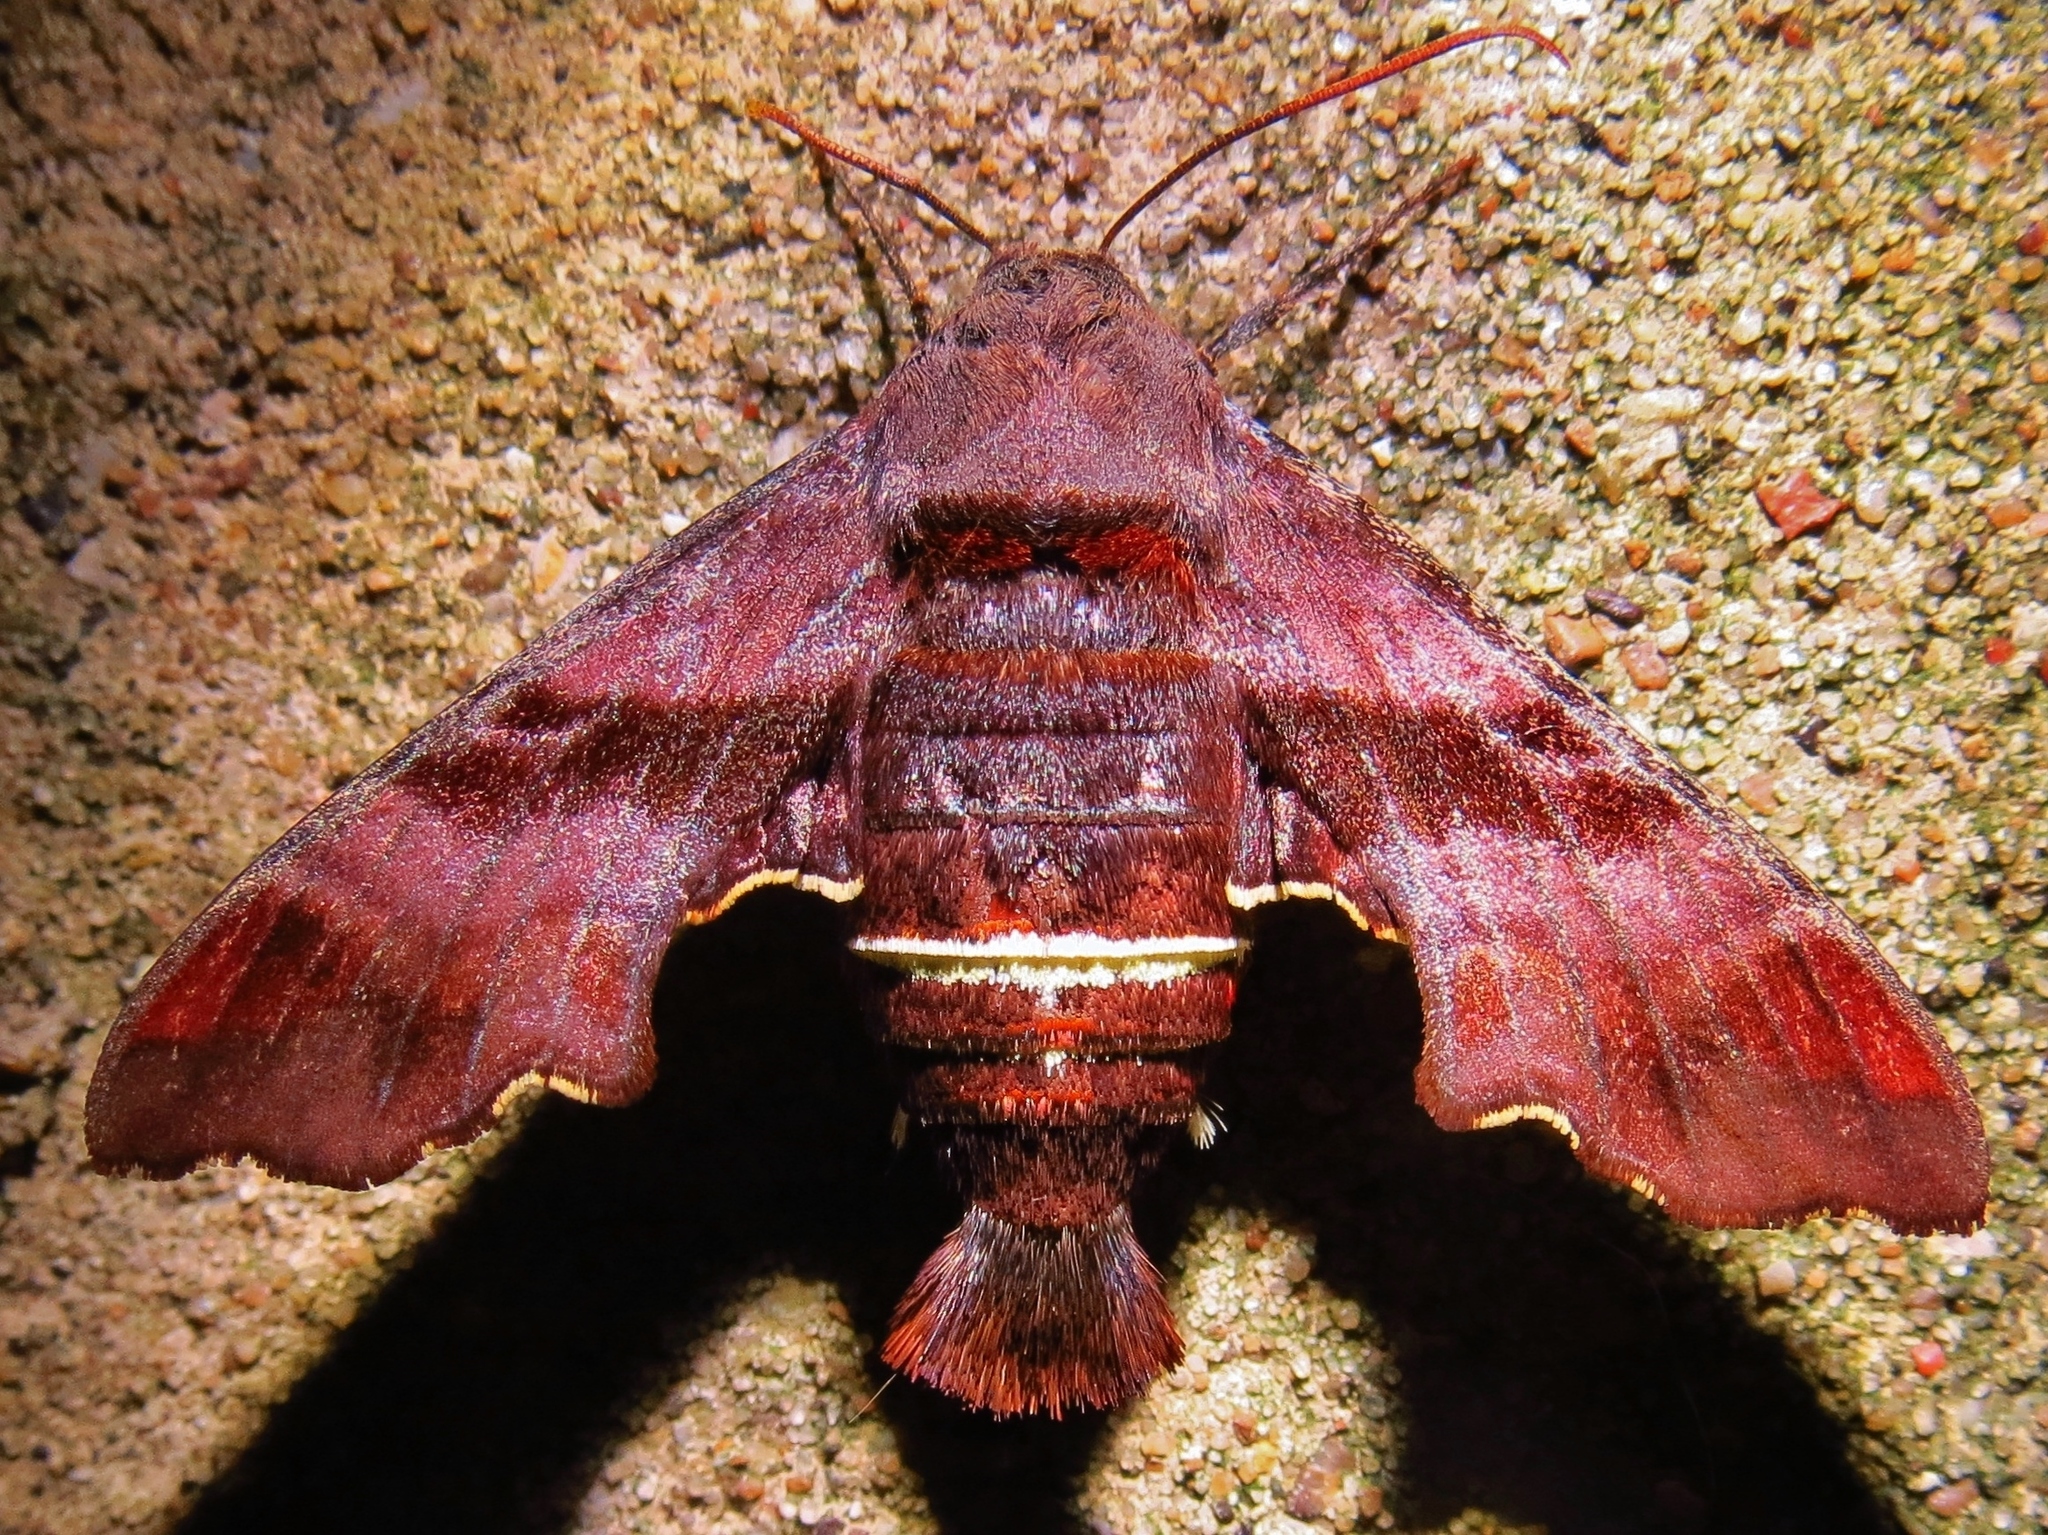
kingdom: Animalia
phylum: Arthropoda
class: Insecta
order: Lepidoptera
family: Sphingidae
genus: Amphion
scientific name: Amphion floridensis
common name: Nessus sphinx
